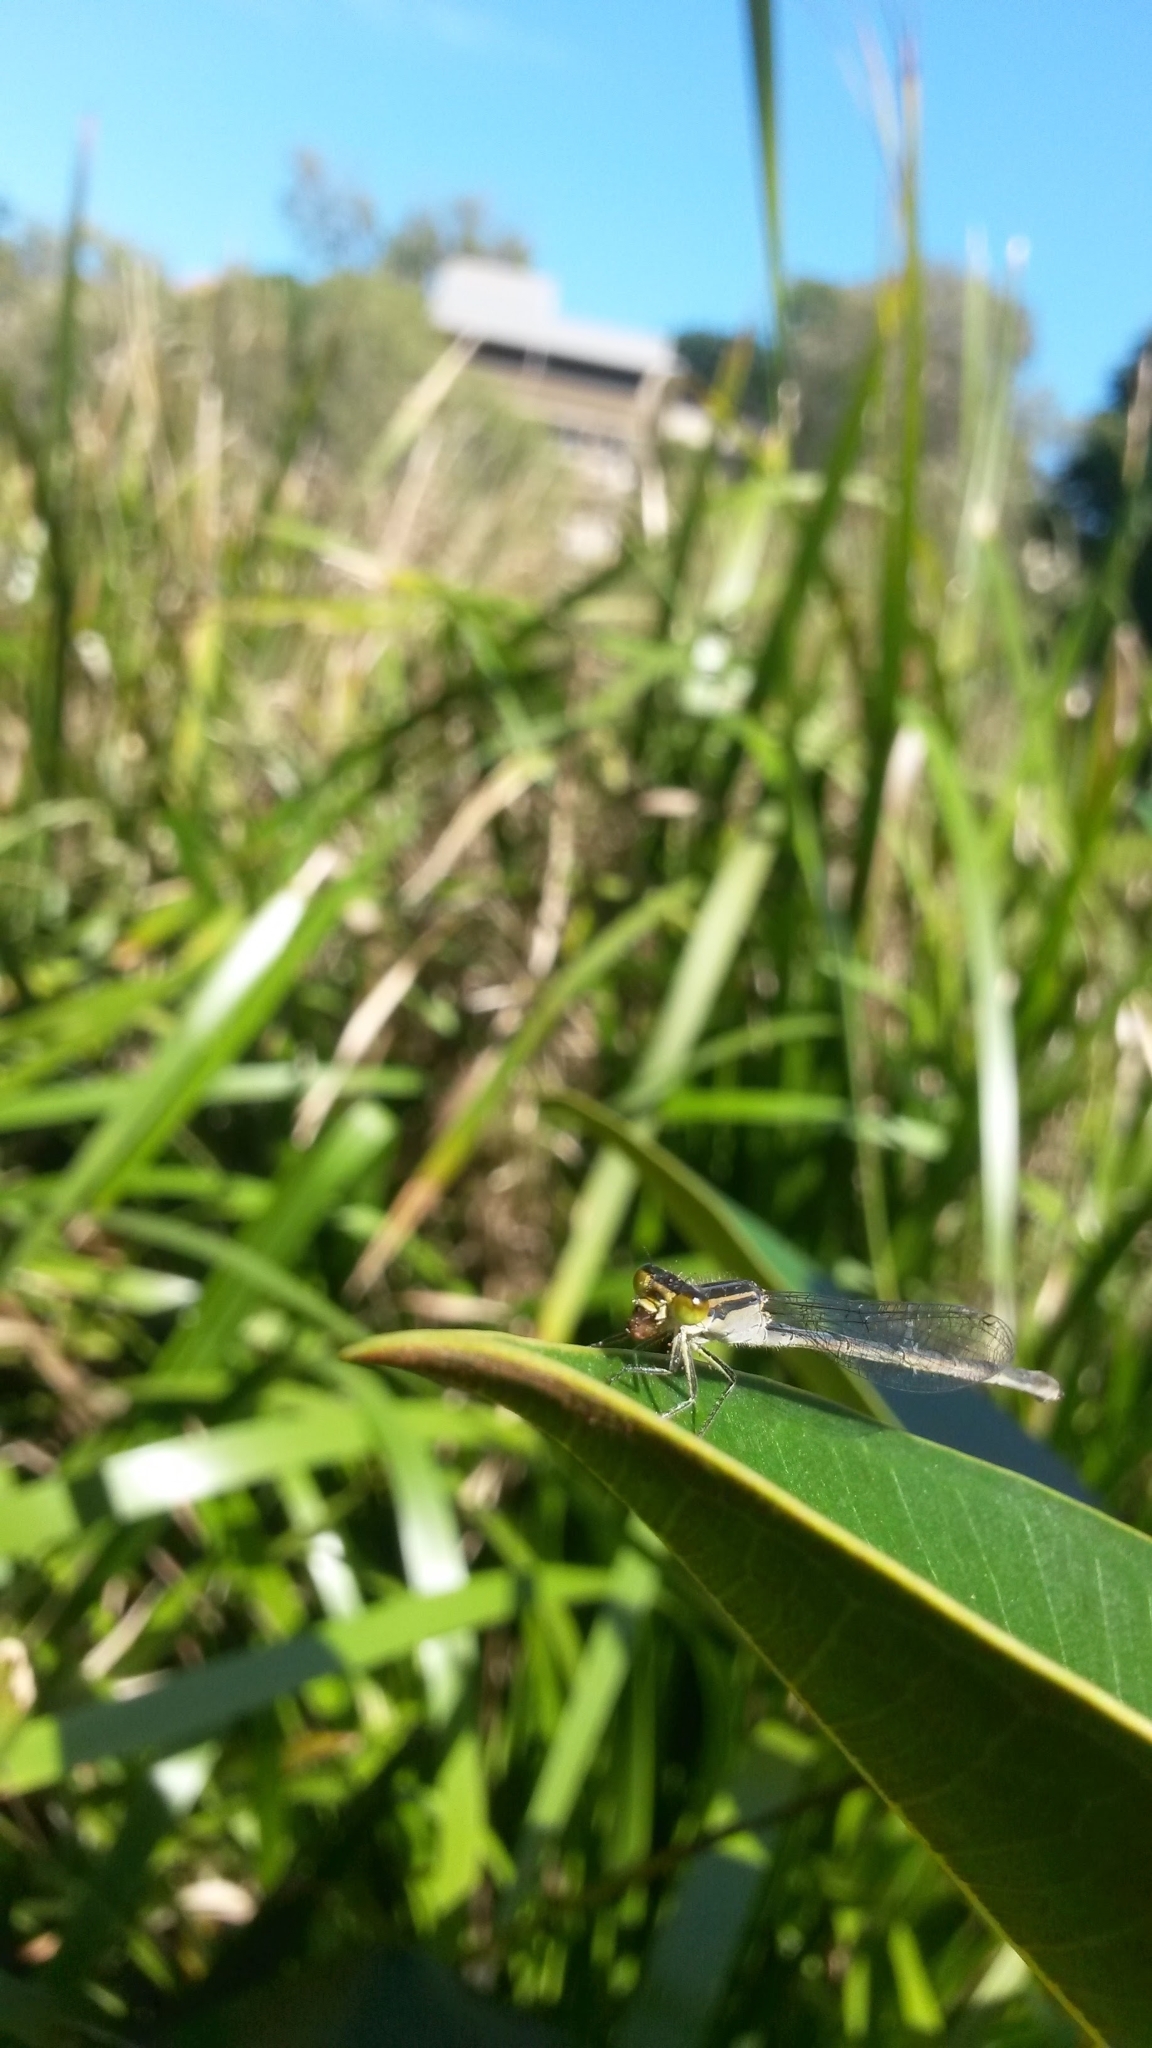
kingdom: Animalia
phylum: Arthropoda
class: Insecta
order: Odonata
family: Coenagrionidae
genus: Ischnura
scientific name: Ischnura heterosticta
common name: Common bluetail
